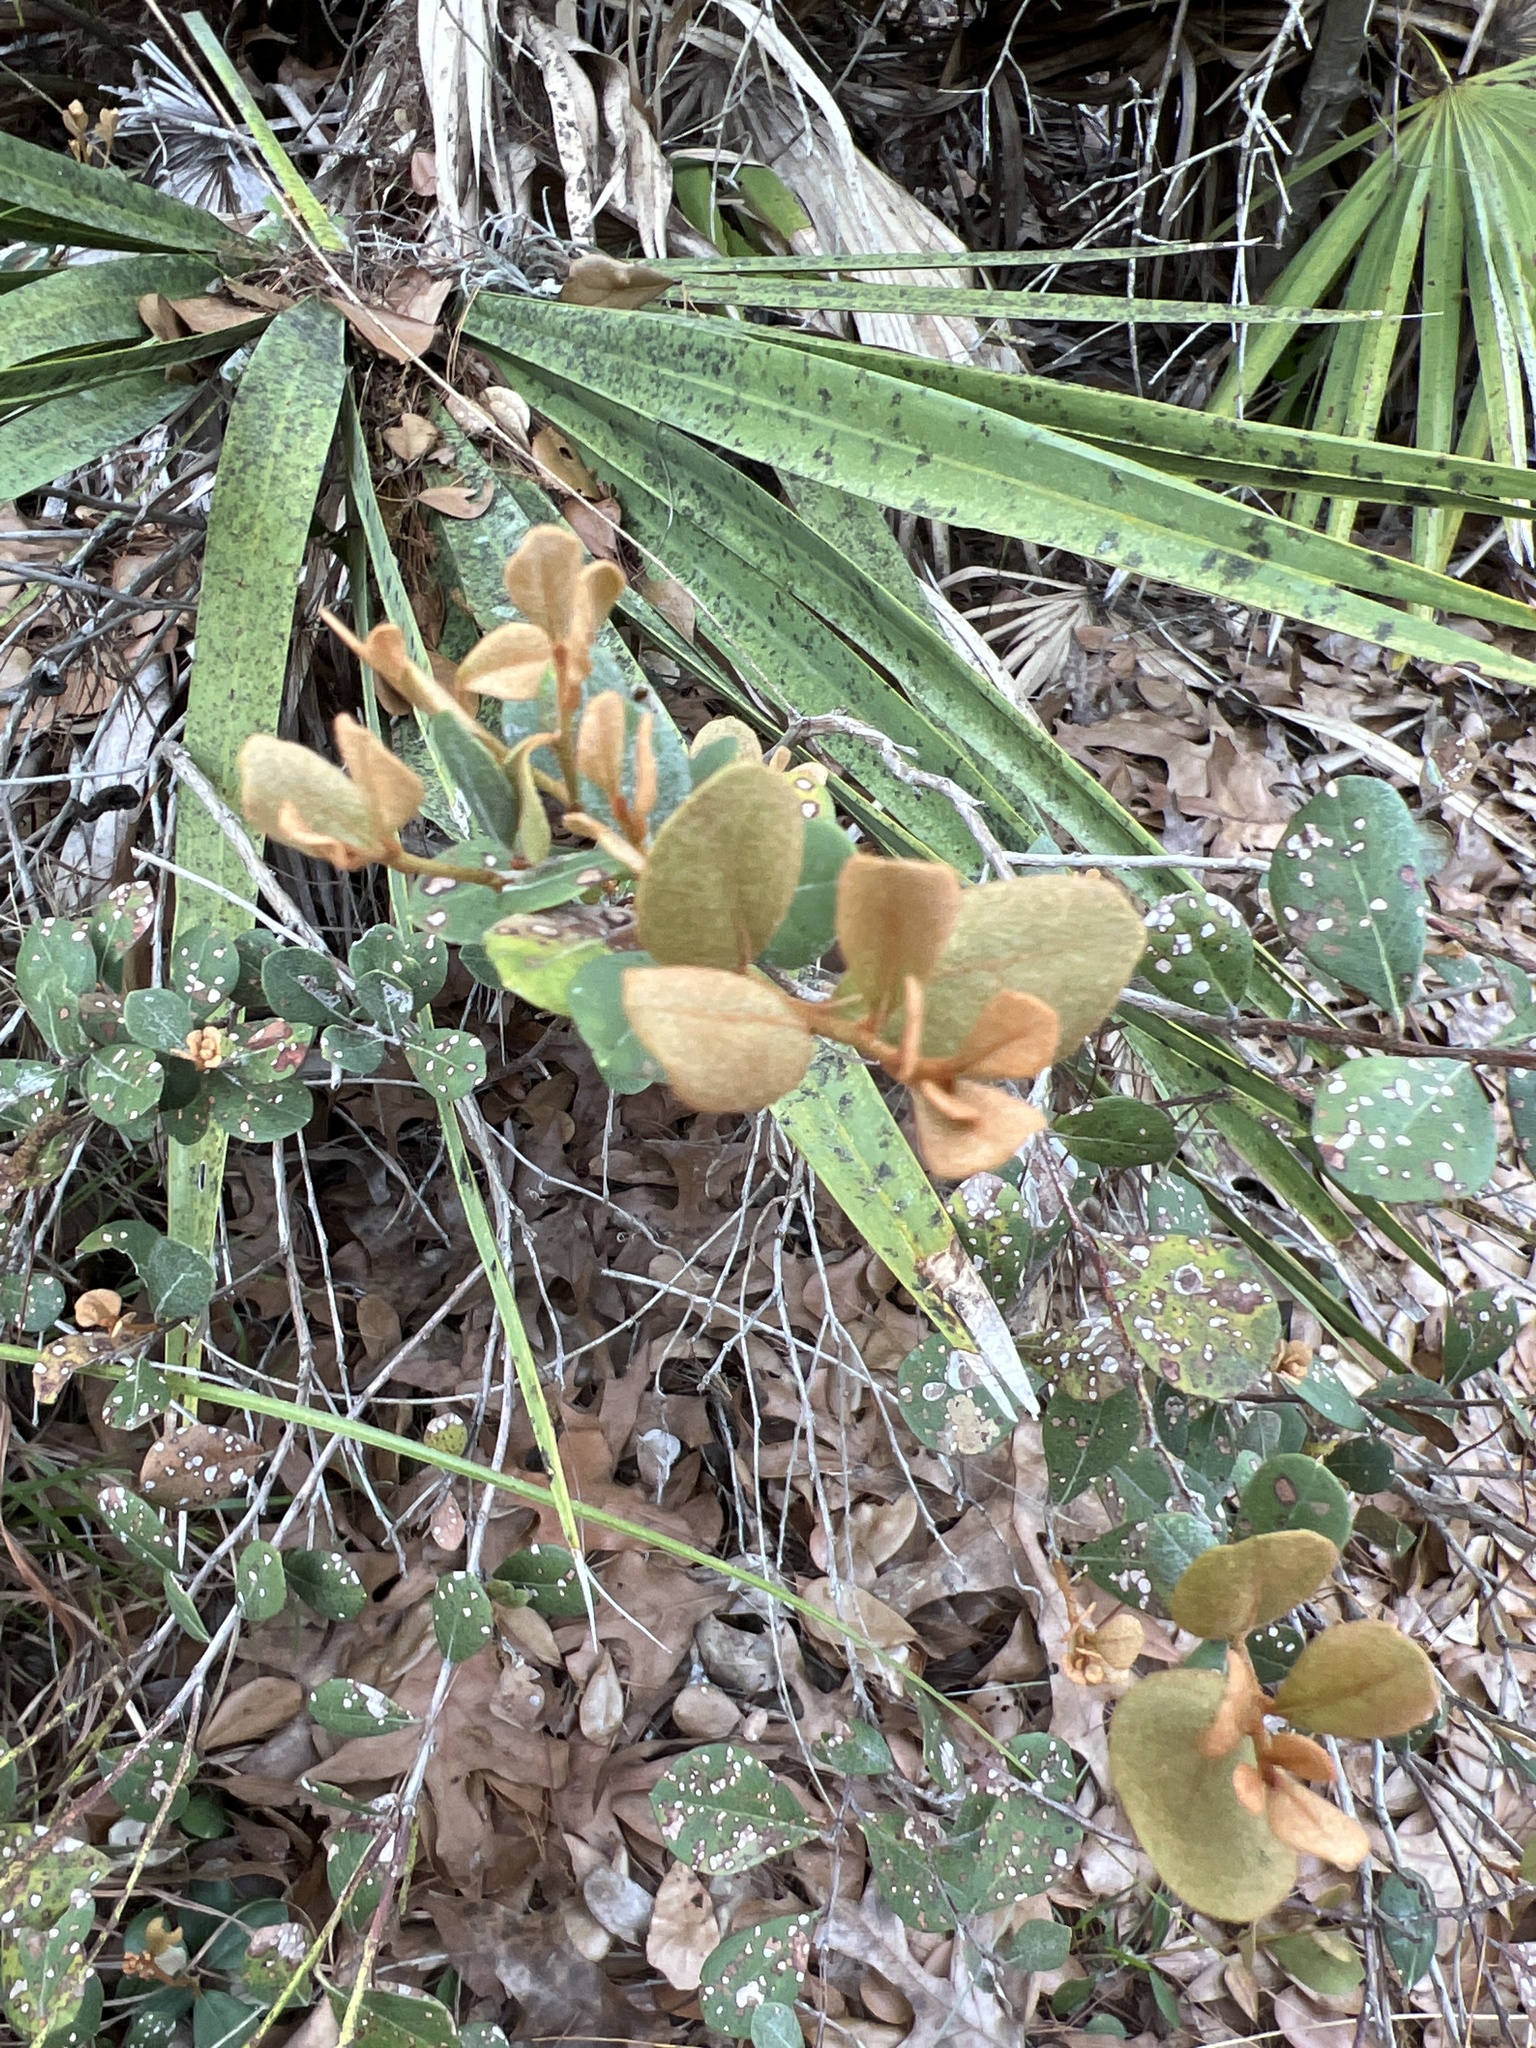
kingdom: Plantae
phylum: Tracheophyta
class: Magnoliopsida
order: Ericales
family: Ericaceae
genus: Lyonia
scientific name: Lyonia fruticosa
